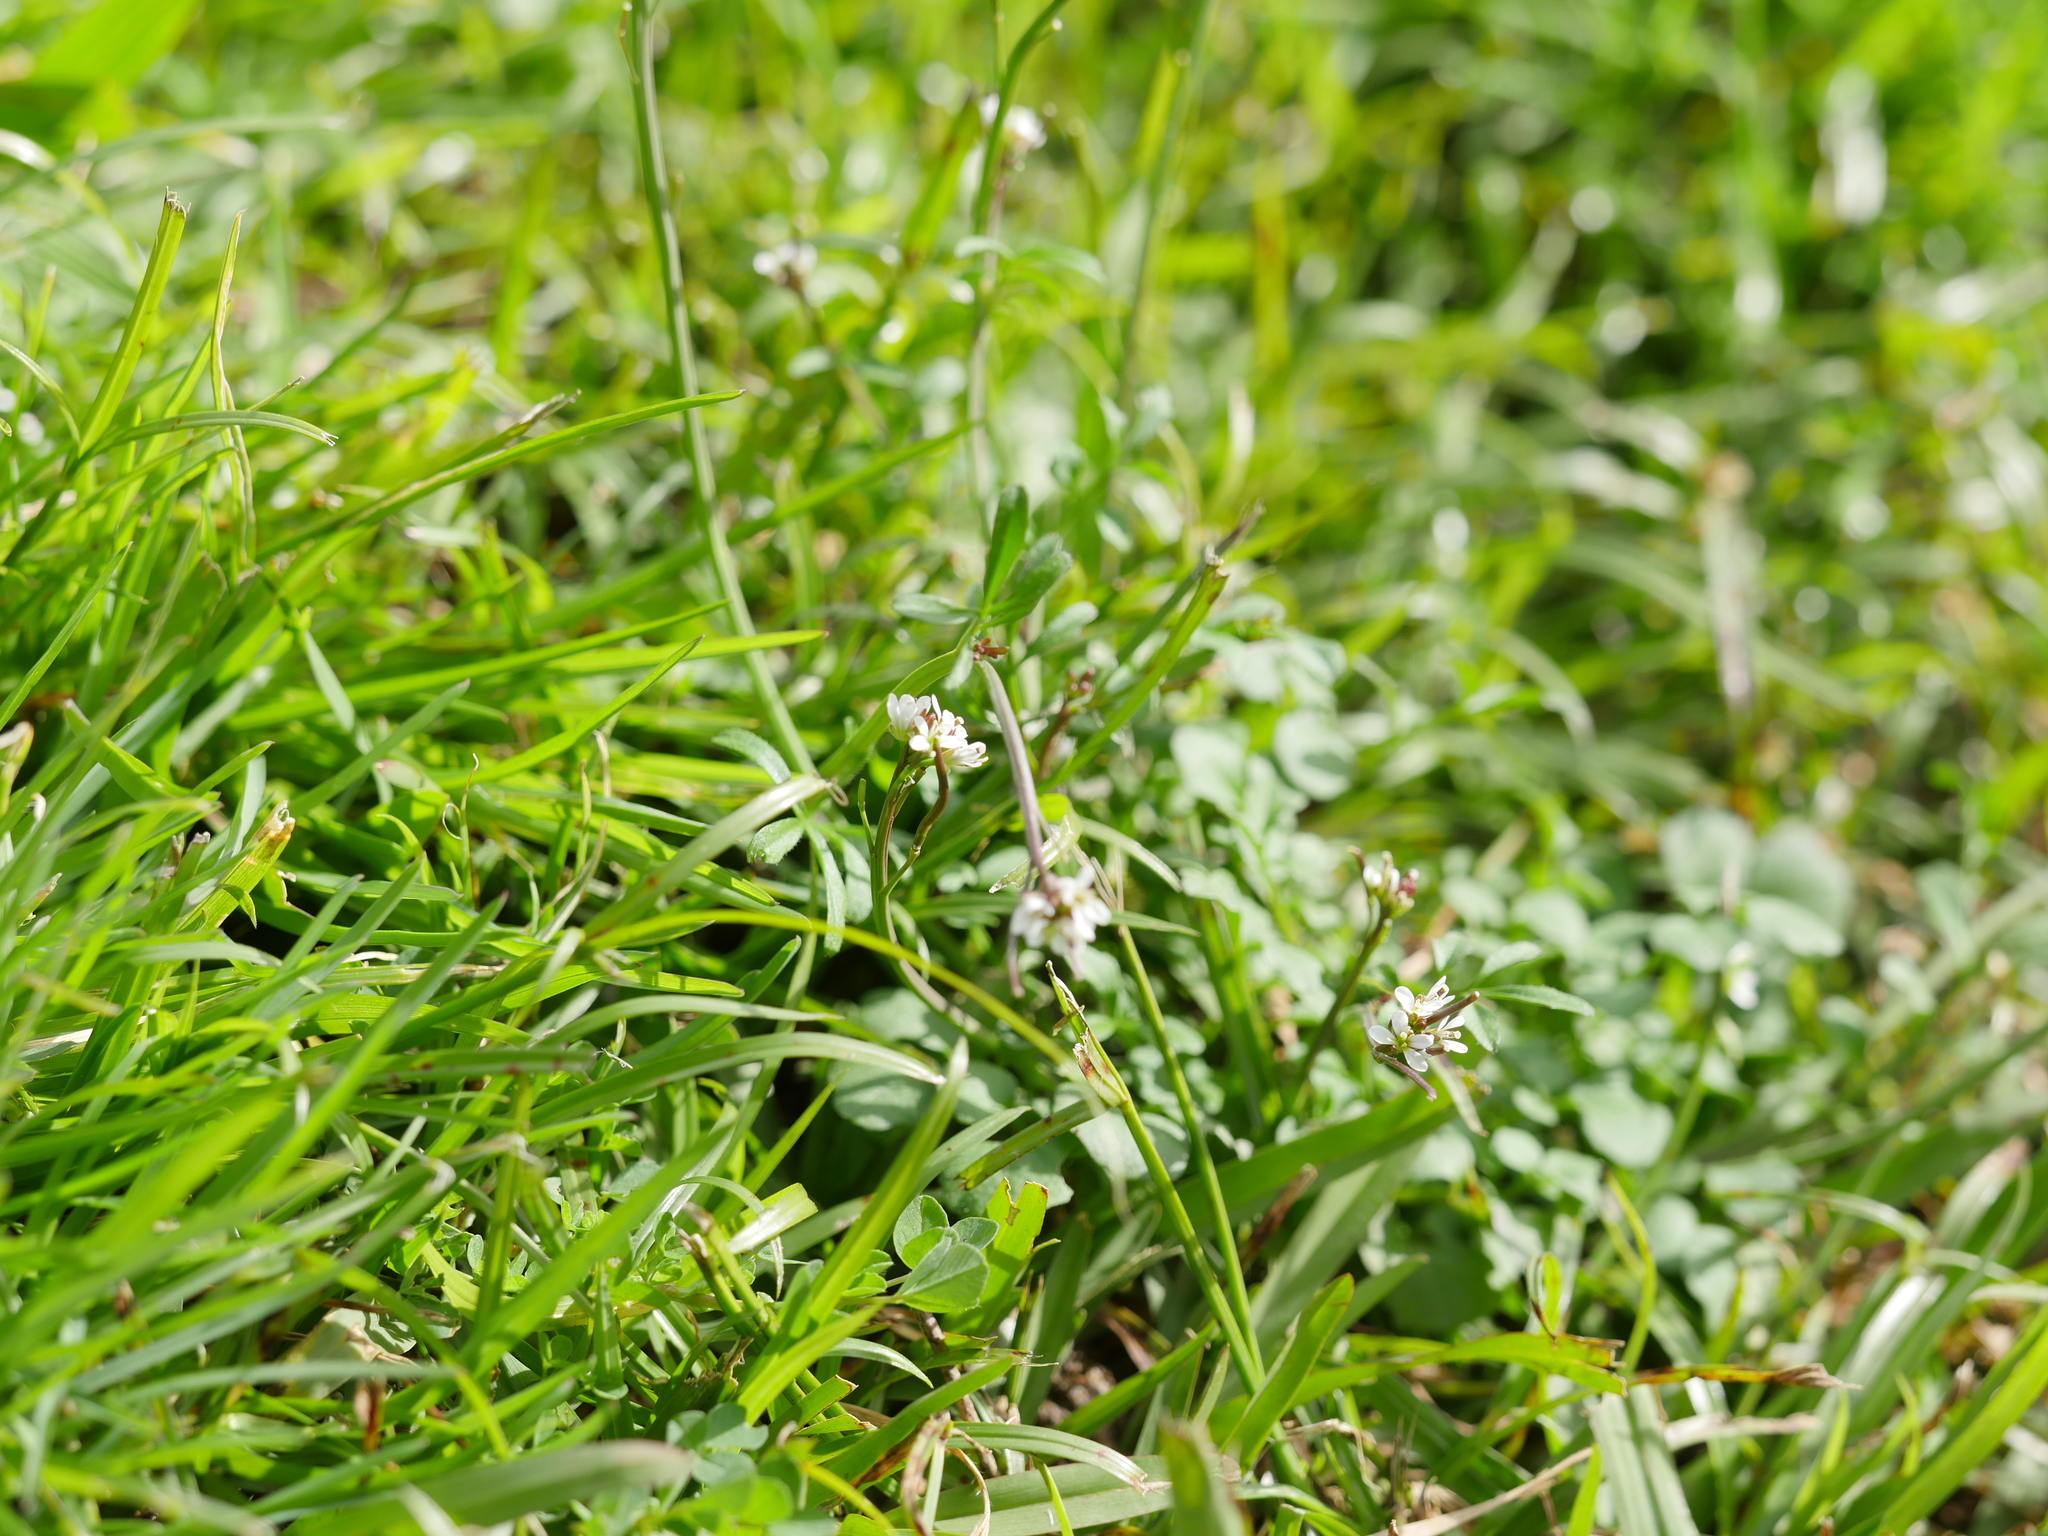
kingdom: Plantae
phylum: Tracheophyta
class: Magnoliopsida
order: Brassicales
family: Brassicaceae
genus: Cardamine
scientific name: Cardamine hirsuta
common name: Hairy bittercress
